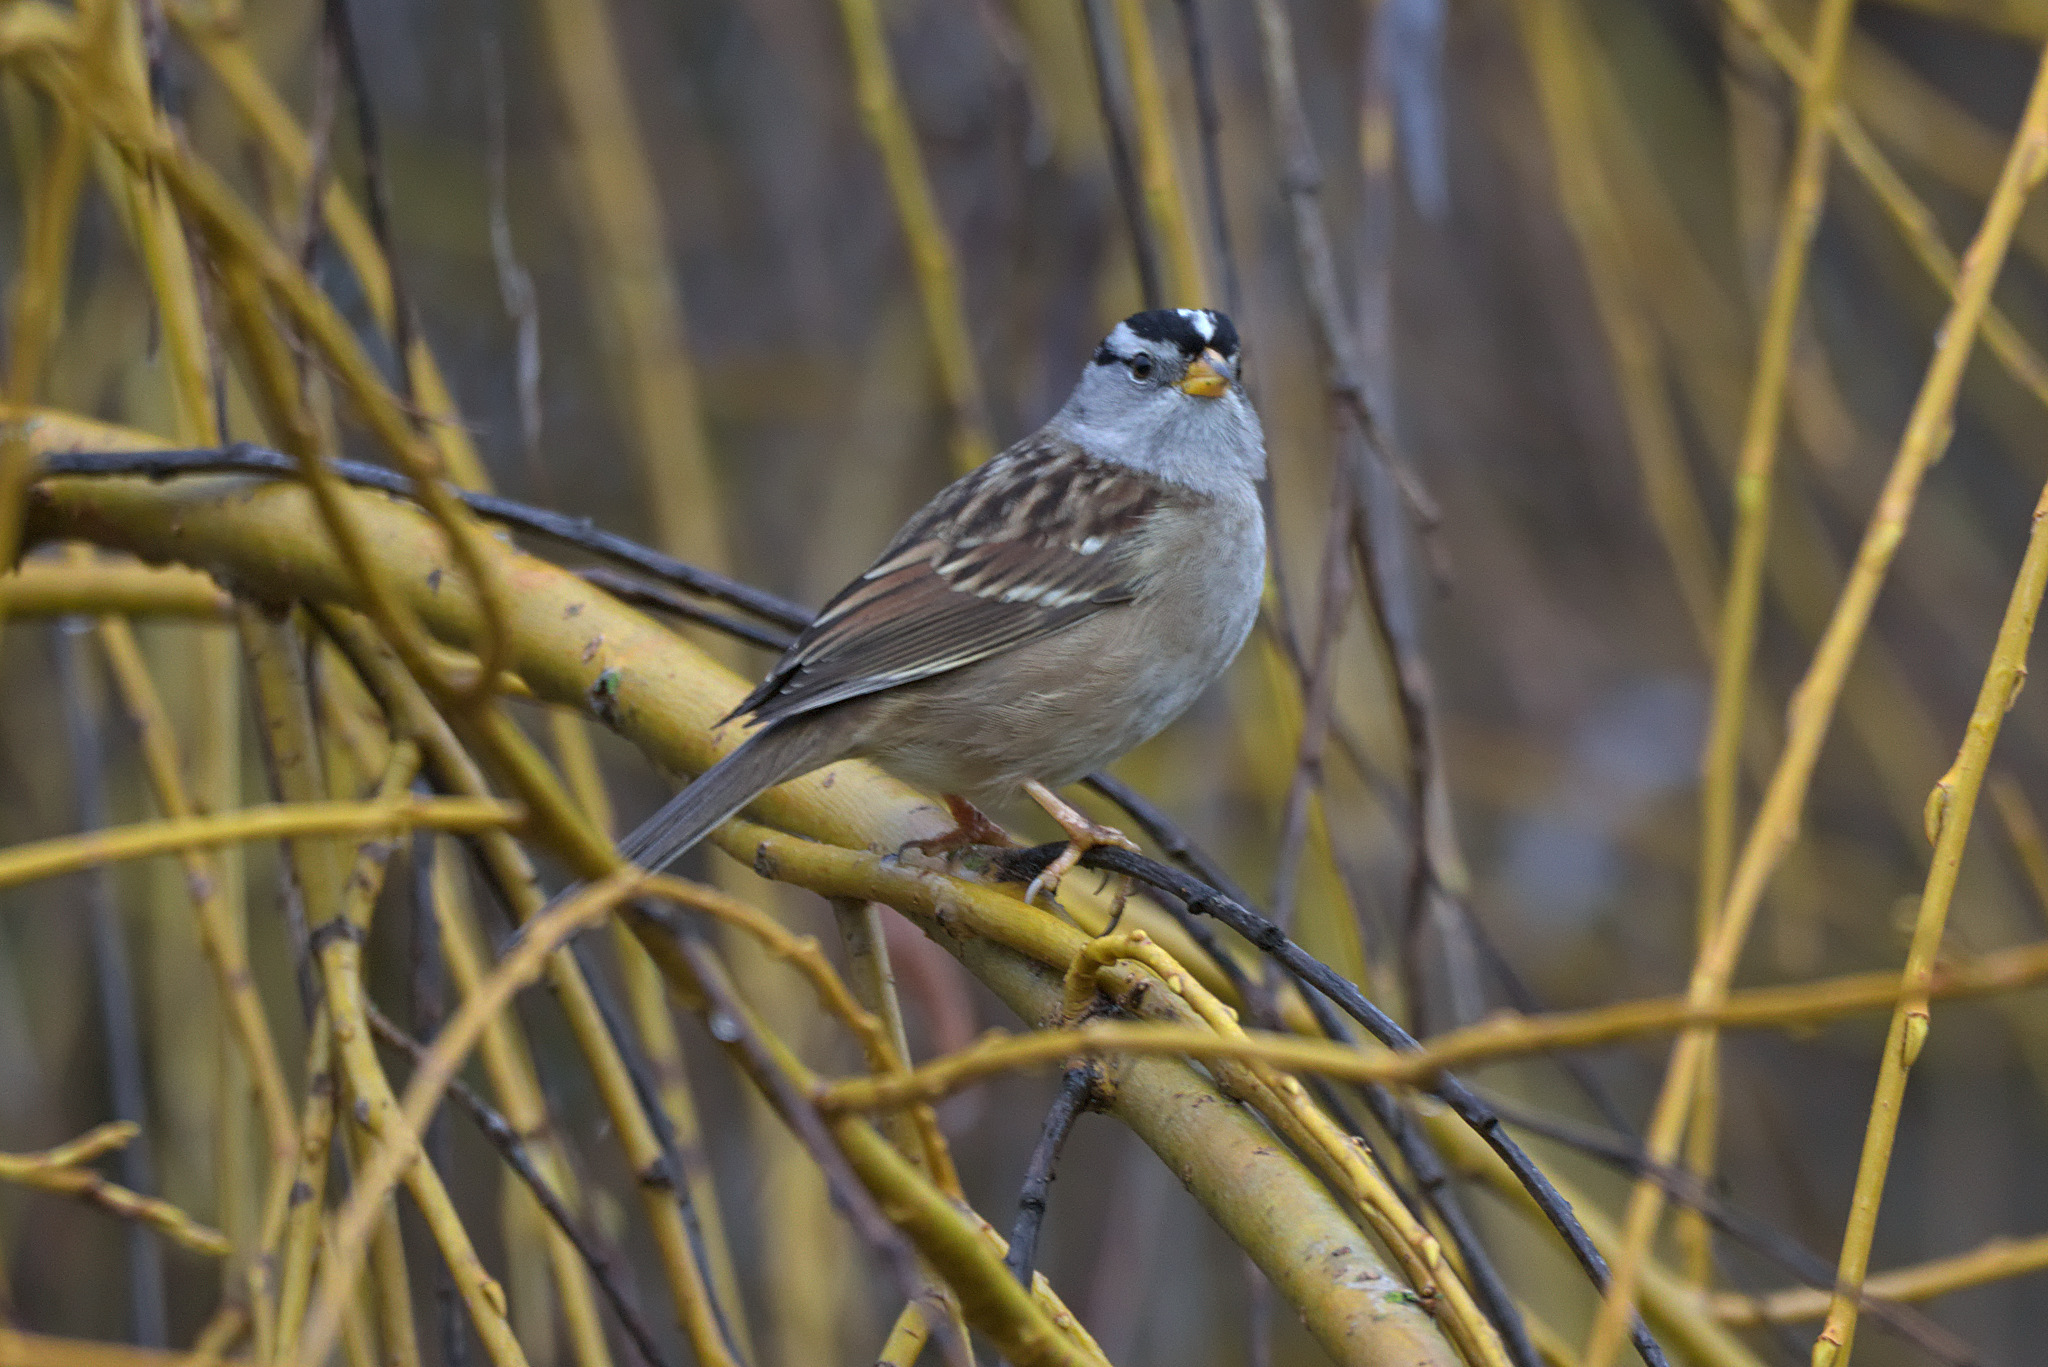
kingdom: Animalia
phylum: Chordata
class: Aves
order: Passeriformes
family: Passerellidae
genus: Zonotrichia
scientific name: Zonotrichia leucophrys
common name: White-crowned sparrow
